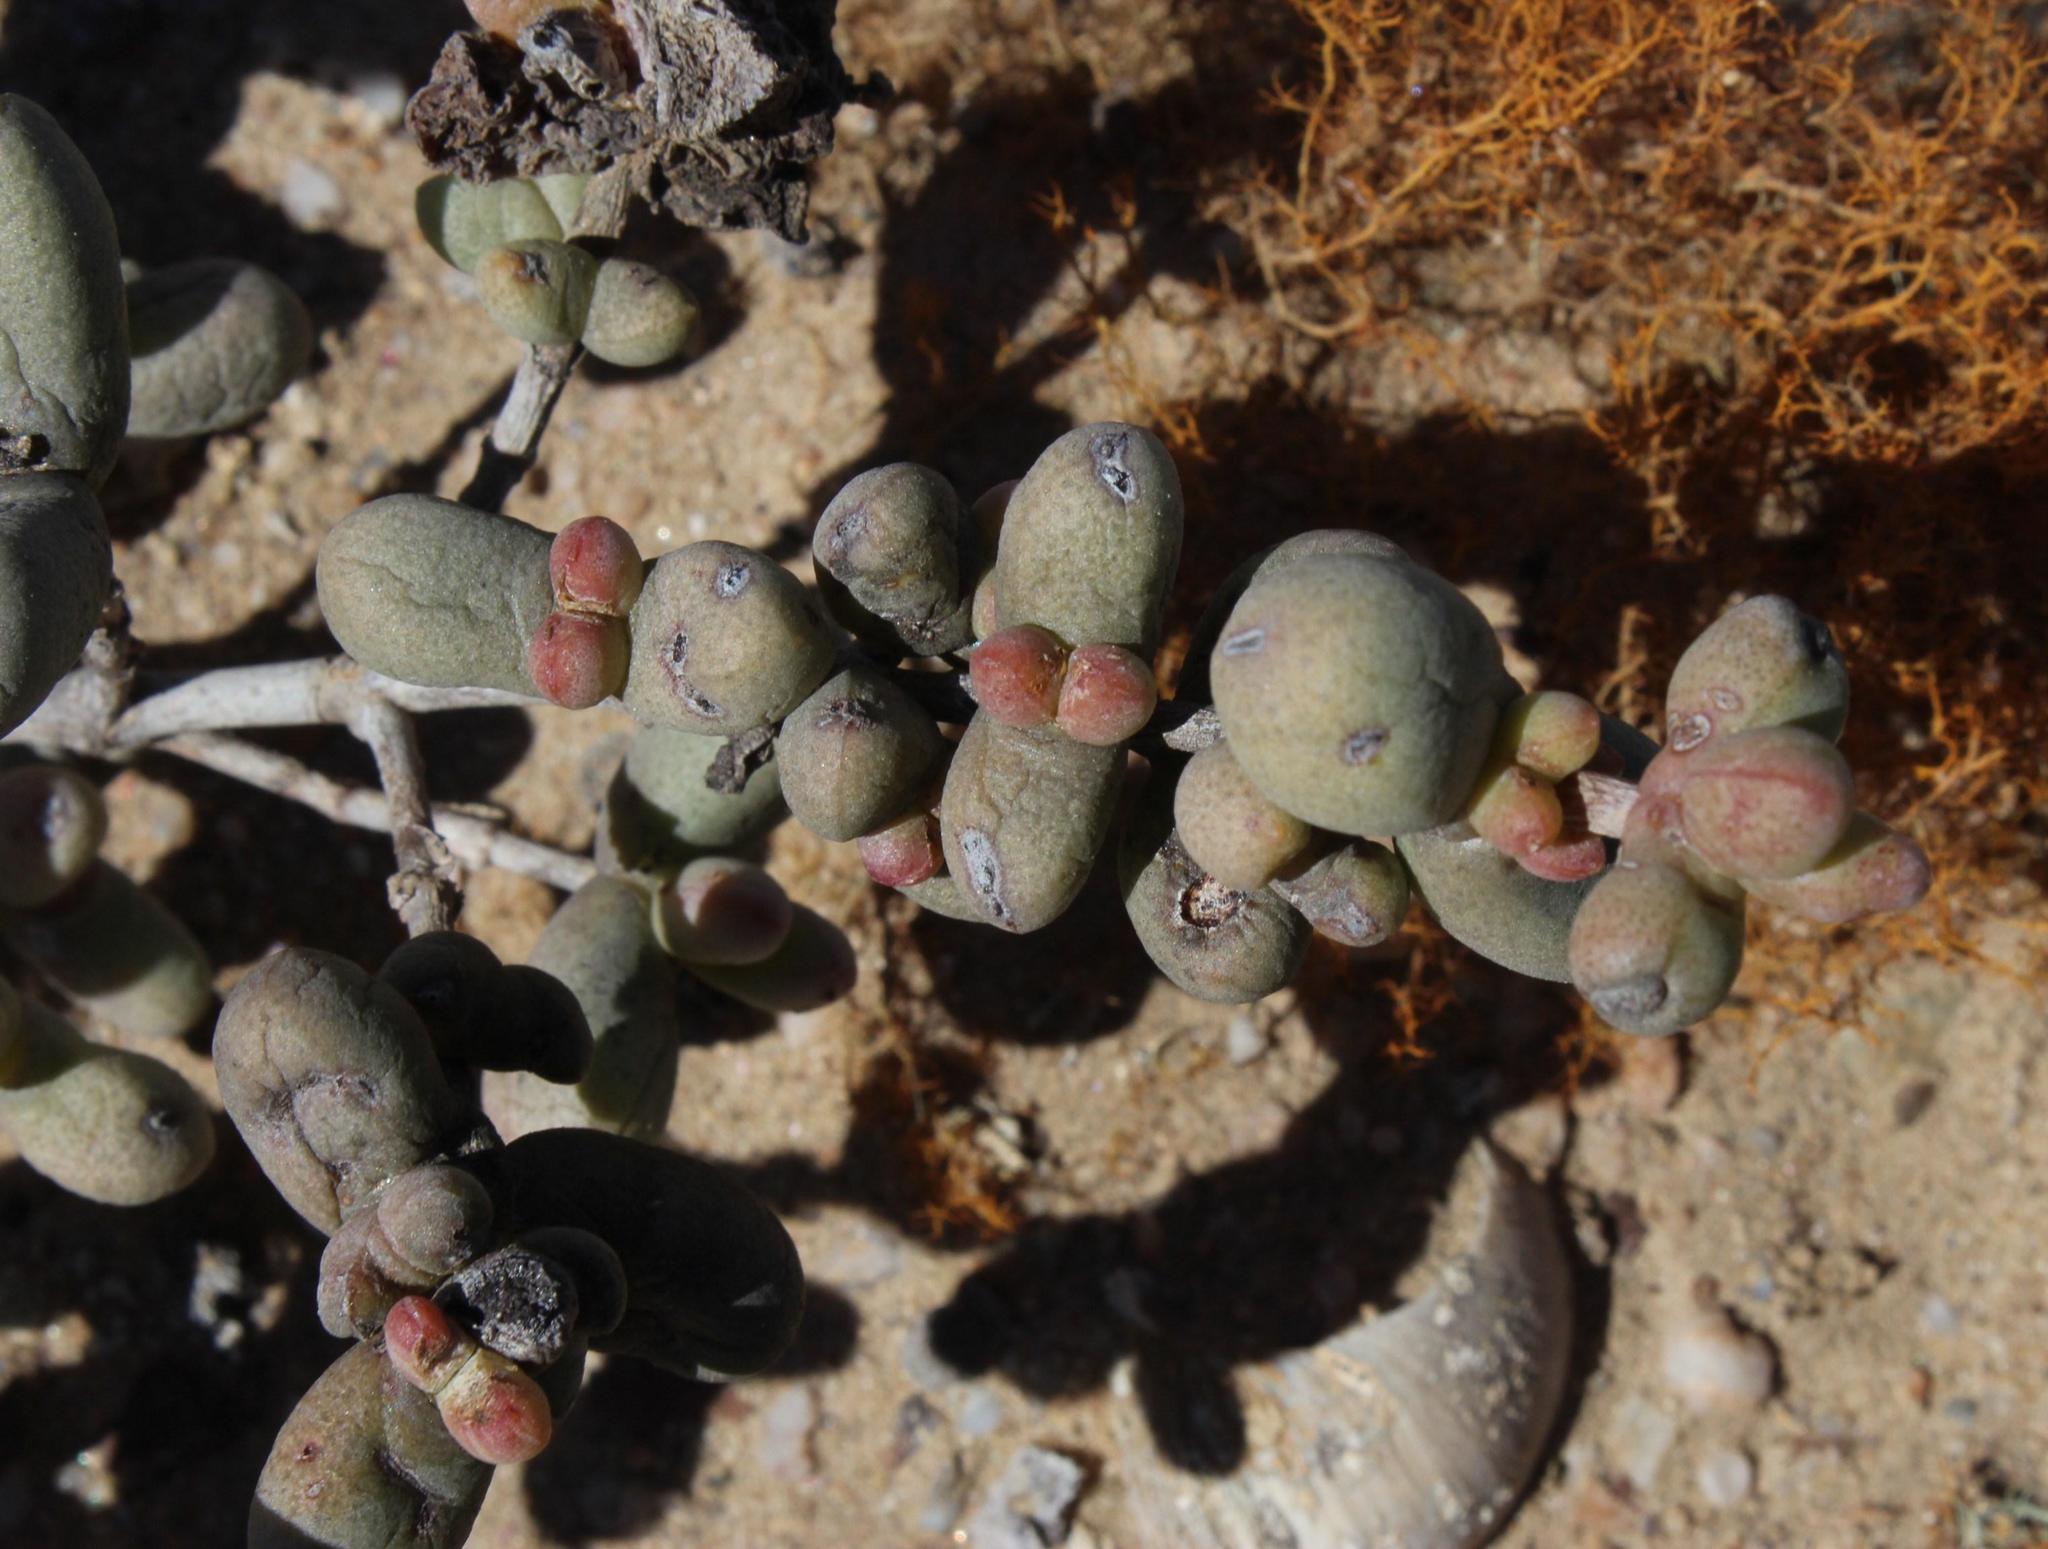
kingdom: Plantae
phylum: Tracheophyta
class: Magnoliopsida
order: Caryophyllales
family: Aizoaceae
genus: Stoeberia
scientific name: Stoeberia beetzii
